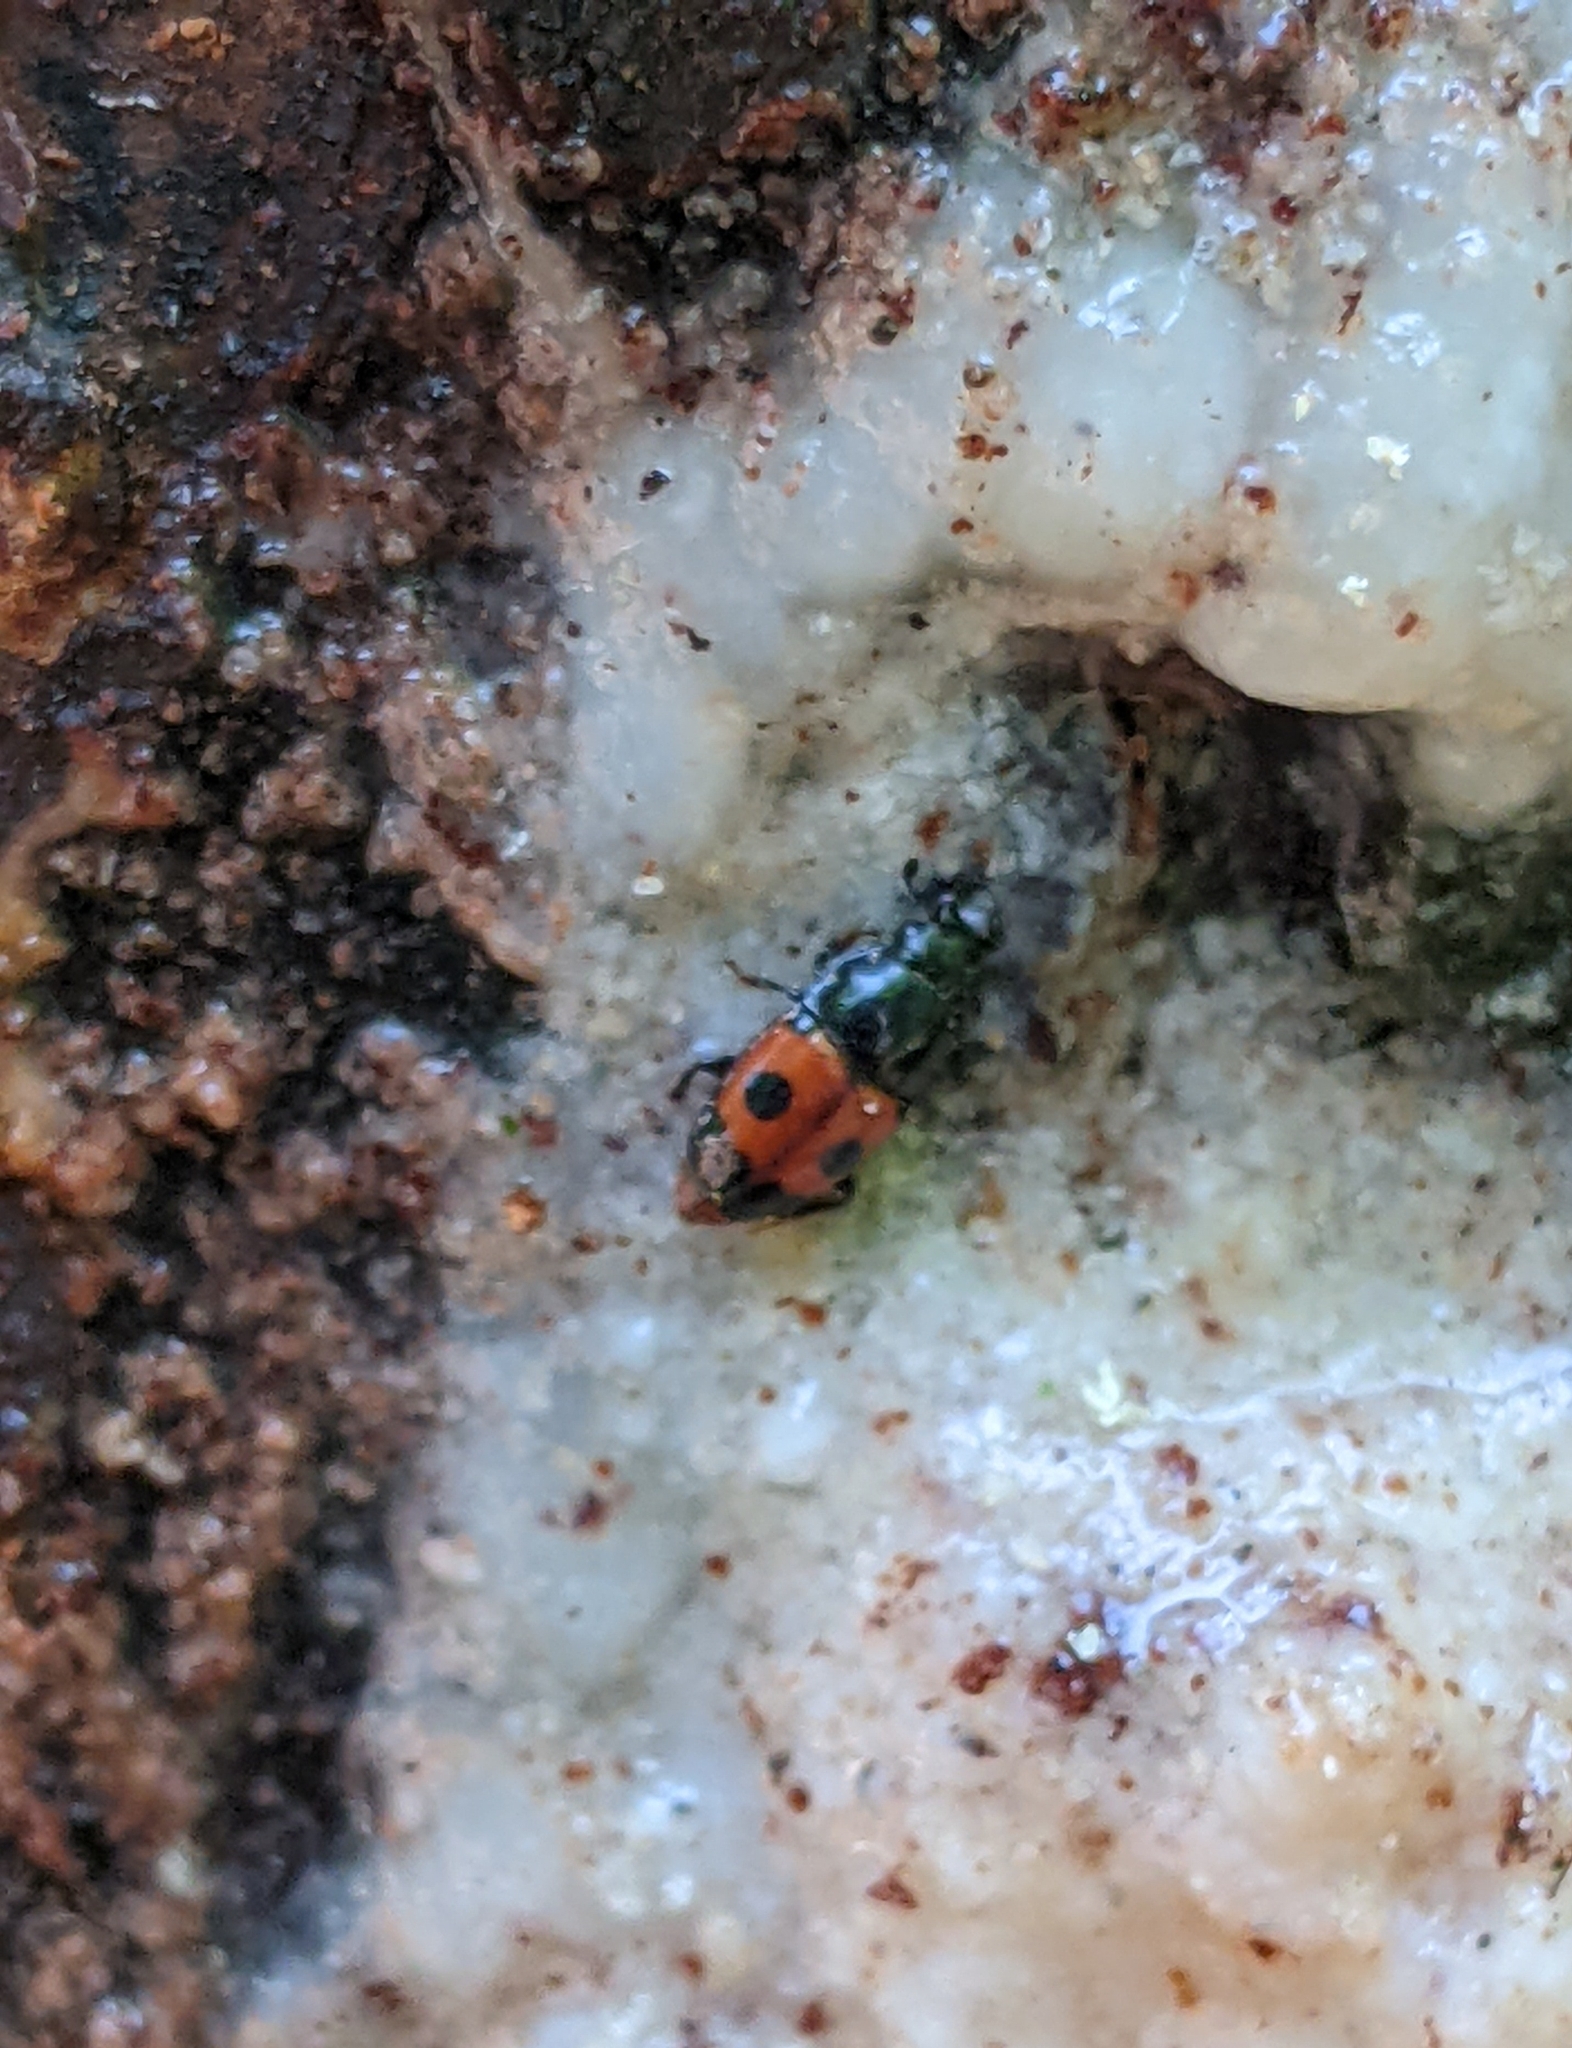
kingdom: Animalia
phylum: Arthropoda
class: Insecta
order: Coleoptera
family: Nitidulidae
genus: Glischrochilus
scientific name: Glischrochilus sanguinolentus
